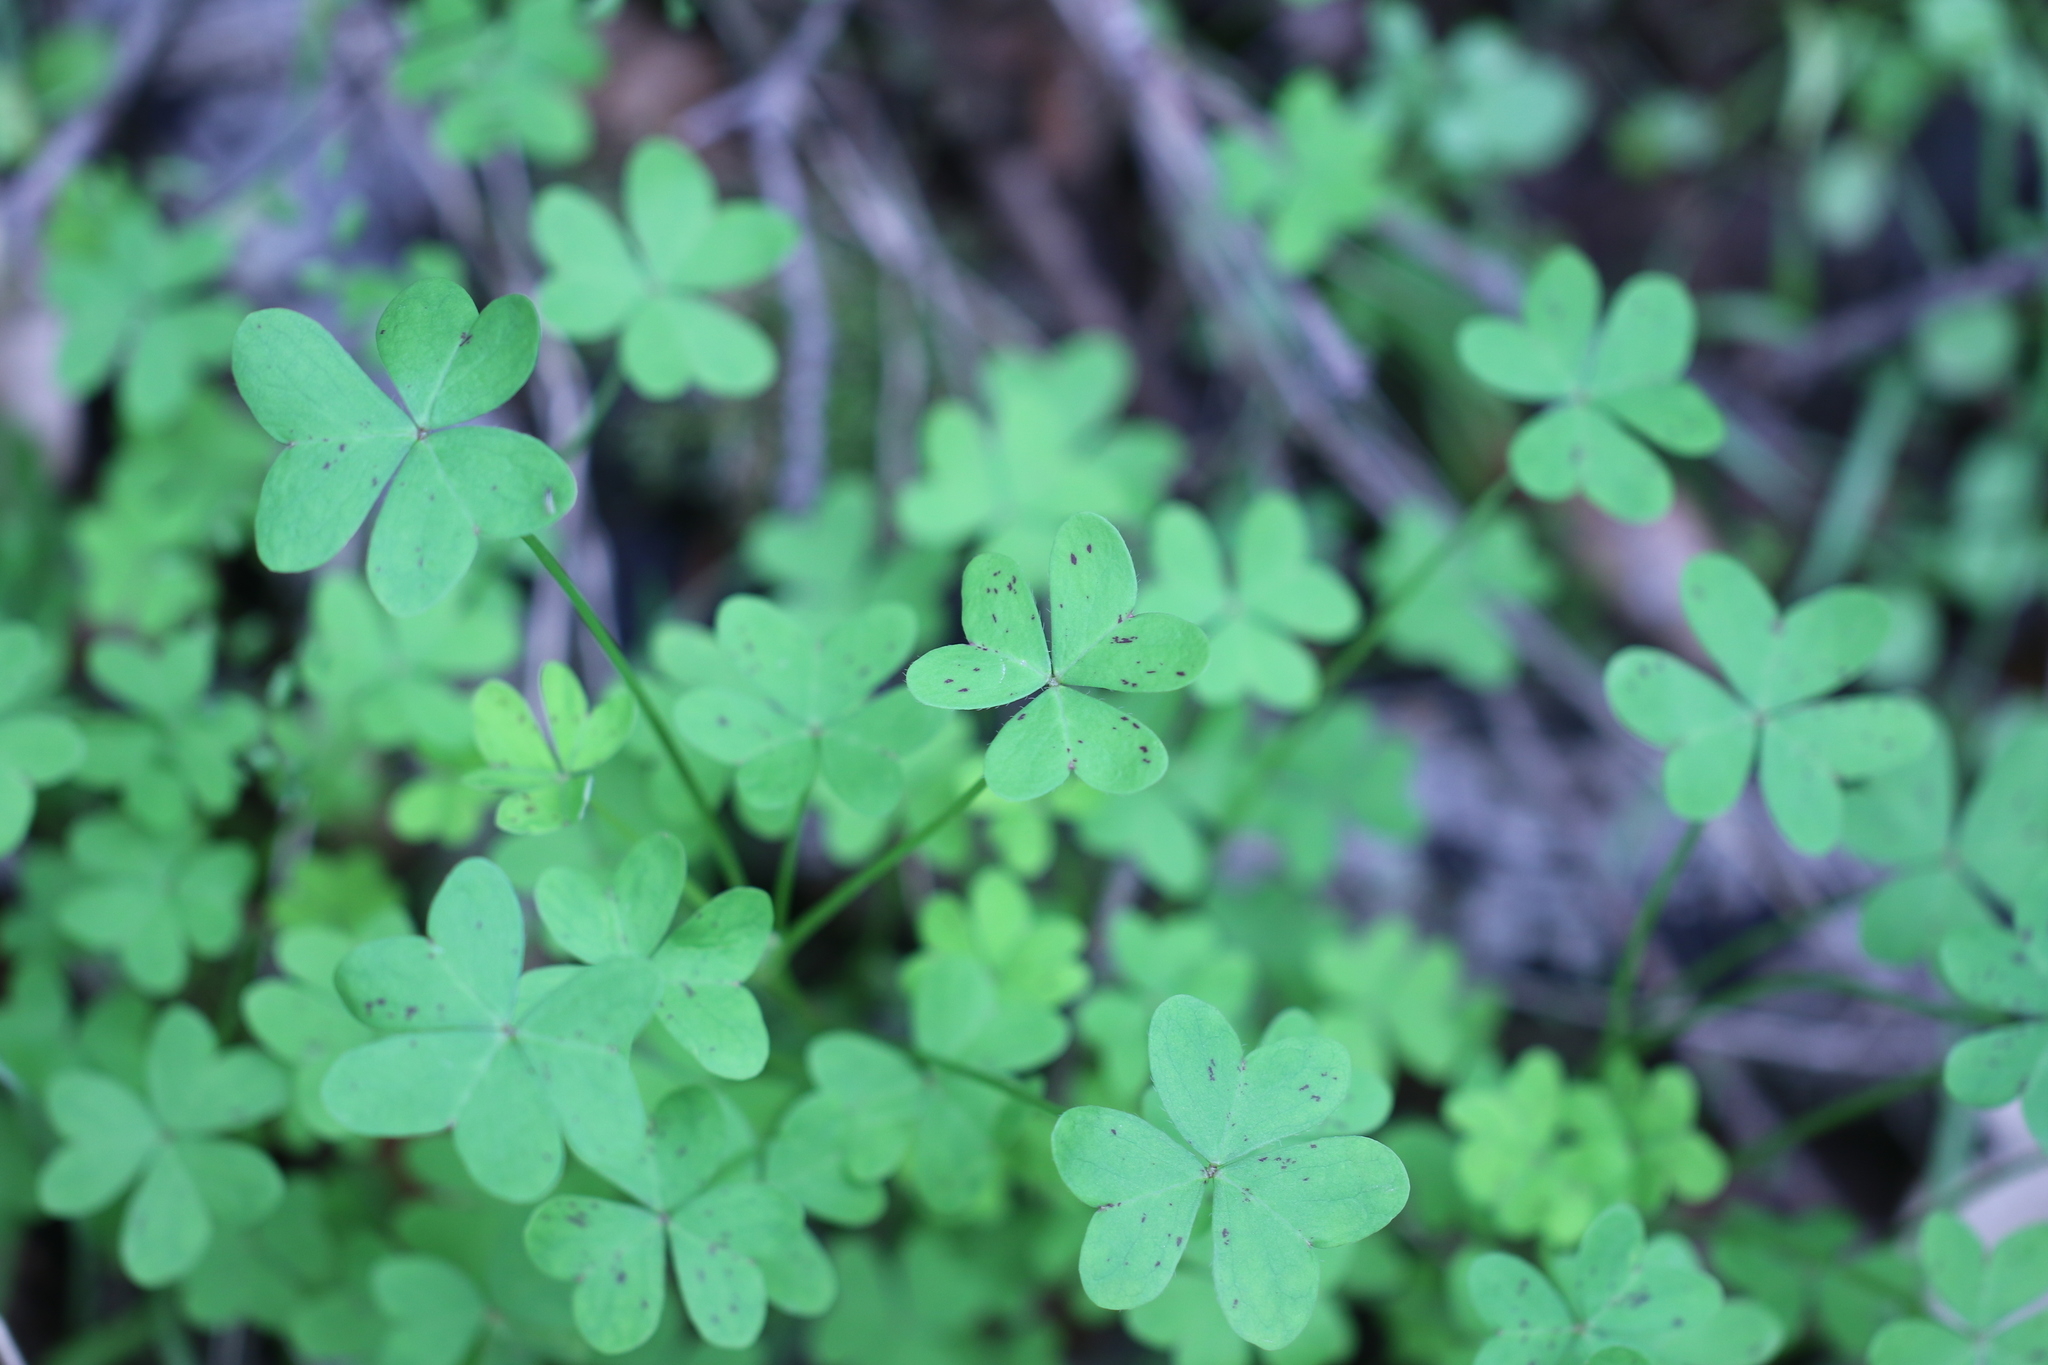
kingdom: Plantae
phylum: Tracheophyta
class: Magnoliopsida
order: Oxalidales
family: Oxalidaceae
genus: Oxalis
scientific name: Oxalis pes-caprae
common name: Bermuda-buttercup
